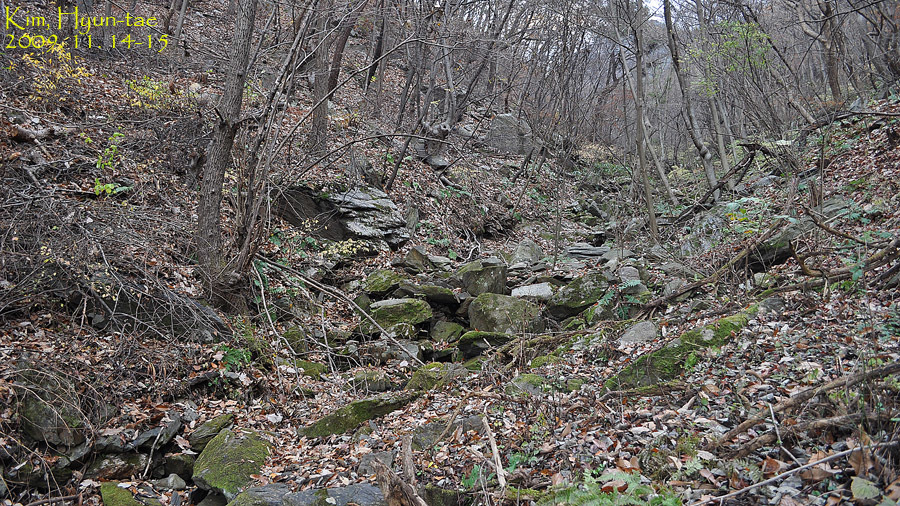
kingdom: Animalia
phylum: Chordata
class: Amphibia
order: Caudata
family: Plethodontidae
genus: Karsenia
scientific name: Karsenia koreana
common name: Korean crevice salamander
